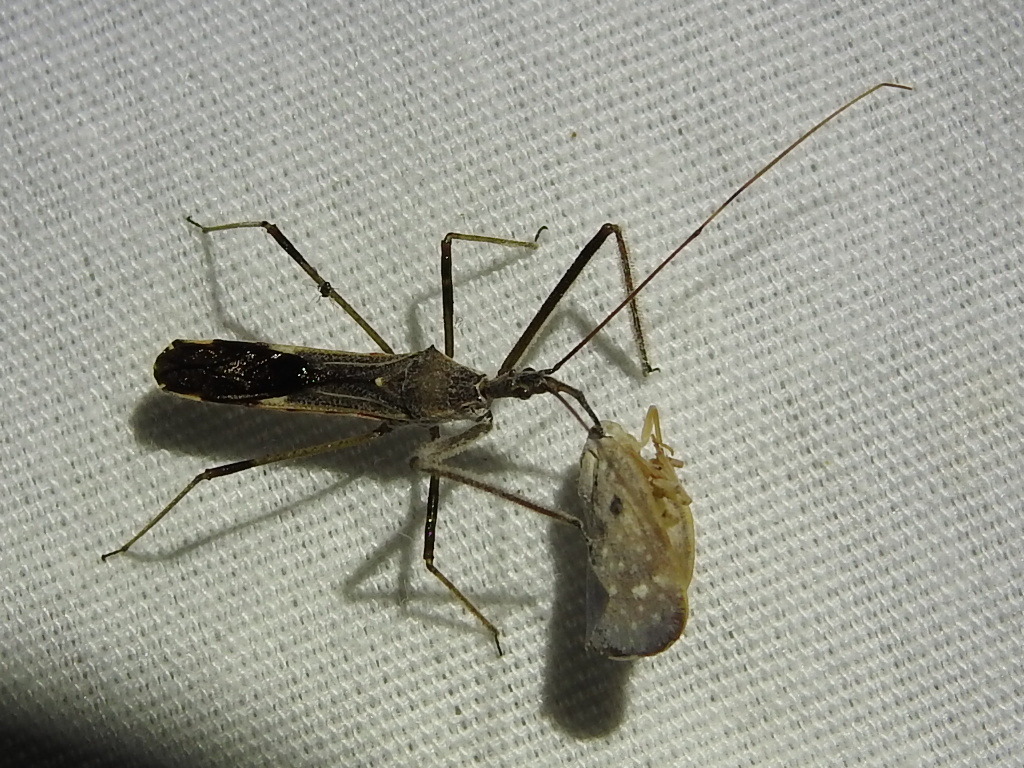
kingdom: Animalia
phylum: Arthropoda
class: Insecta
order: Hemiptera
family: Reduviidae
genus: Zelus
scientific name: Zelus tetracanthus
